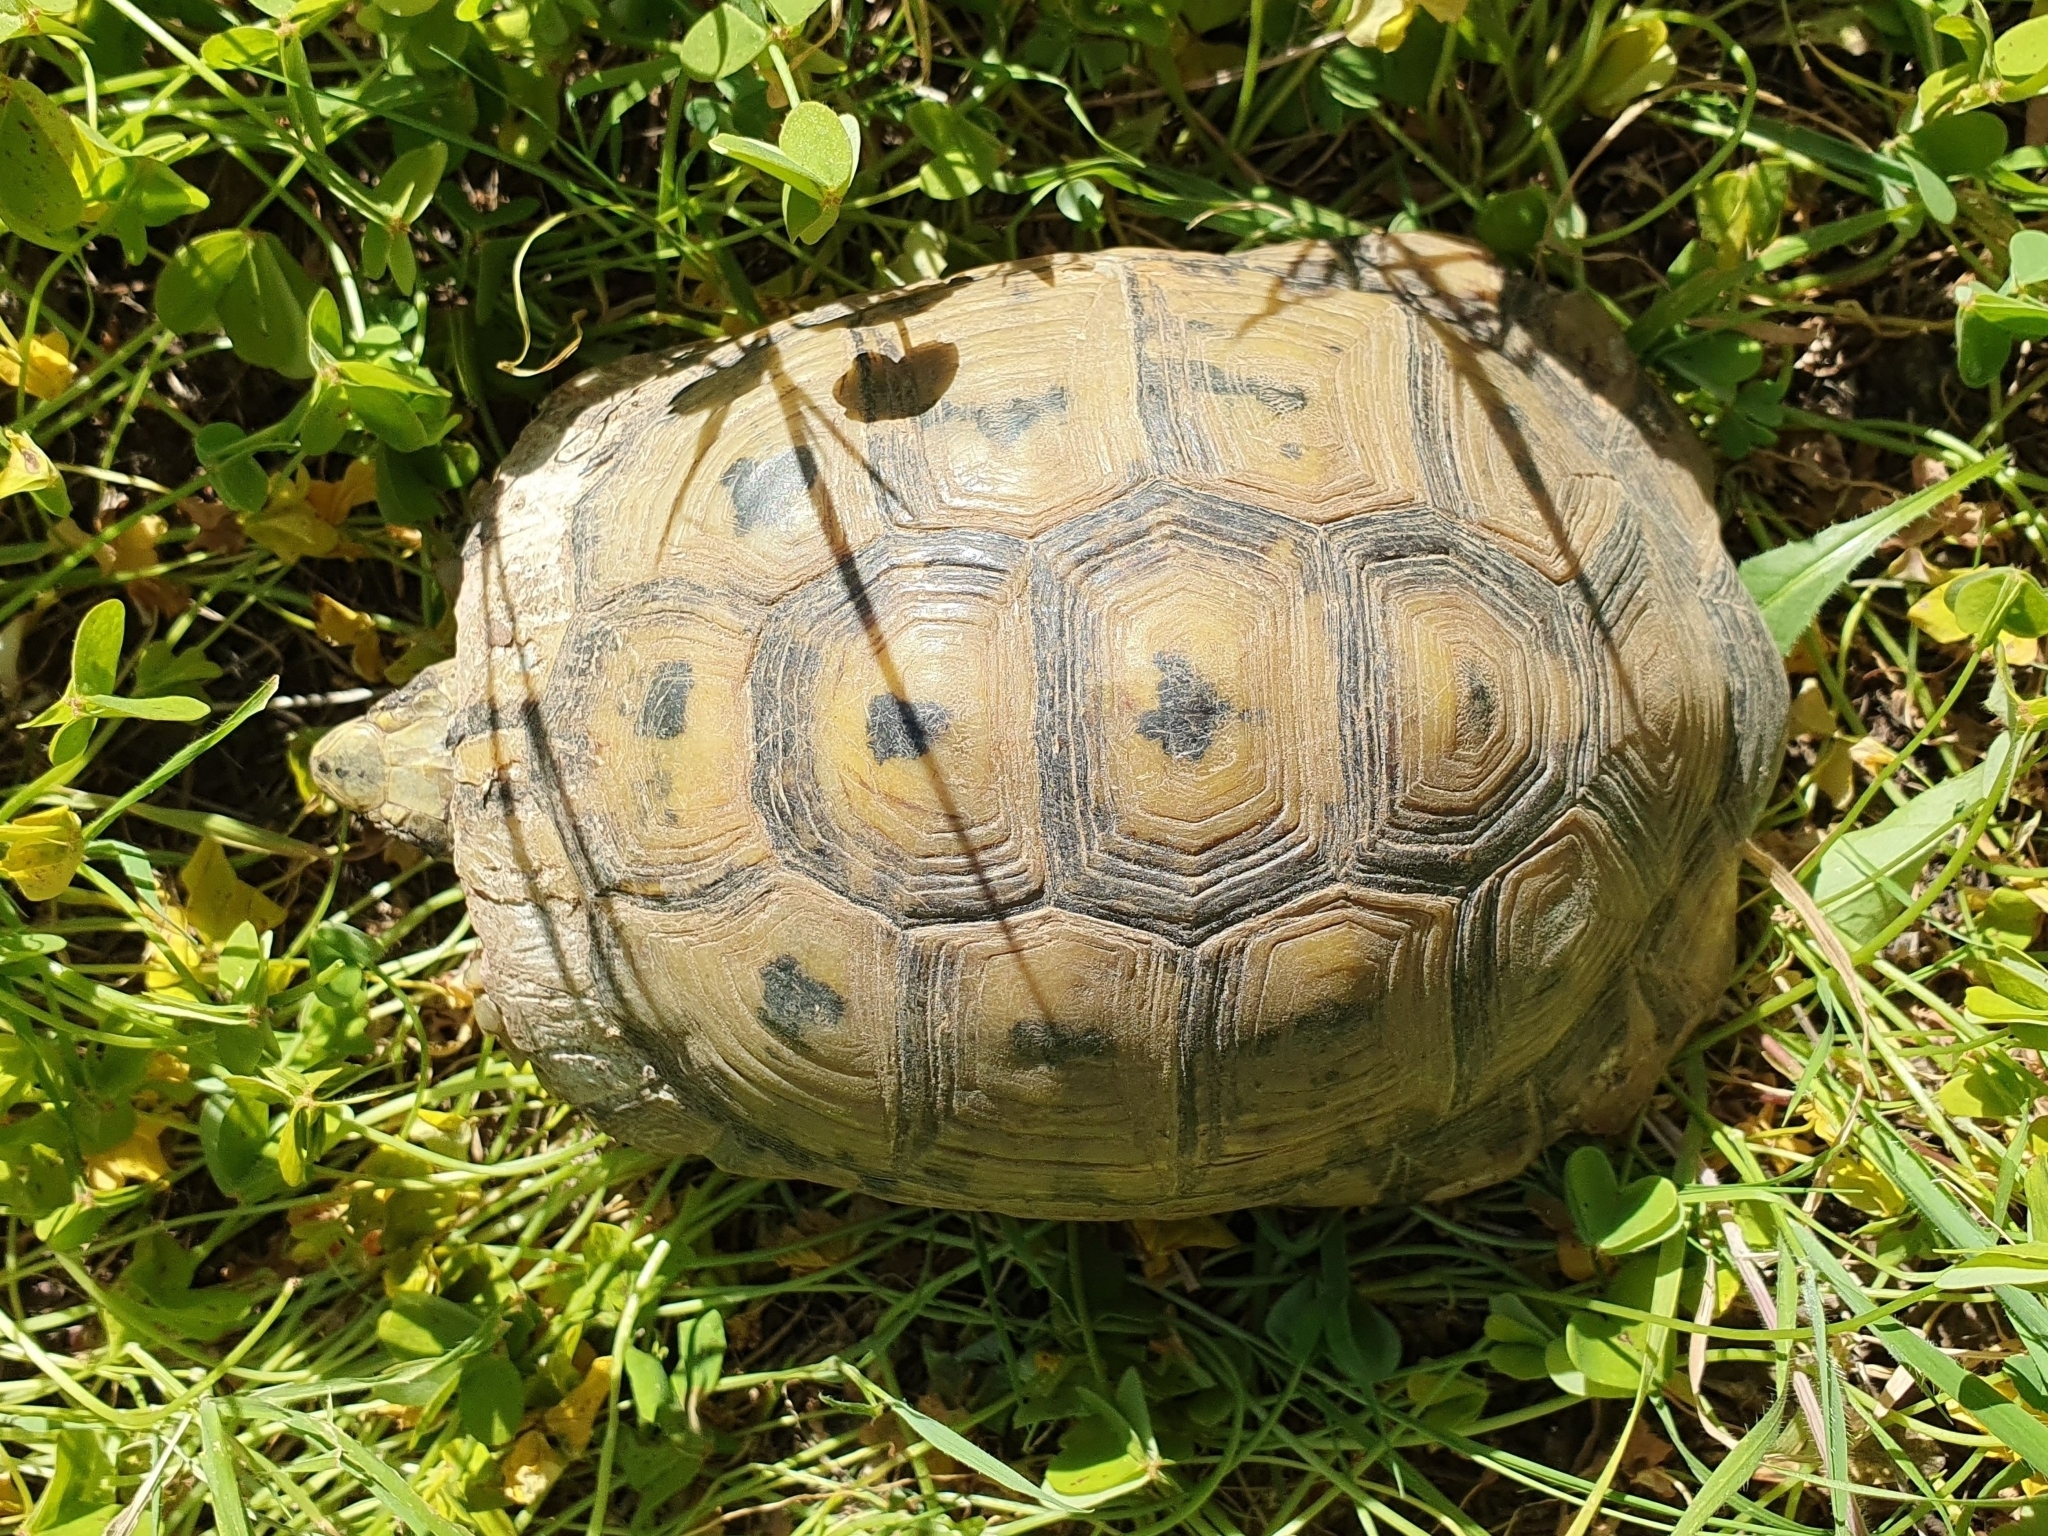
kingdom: Animalia
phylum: Chordata
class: Testudines
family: Testudinidae
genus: Testudo
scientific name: Testudo graeca
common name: Common tortoise
